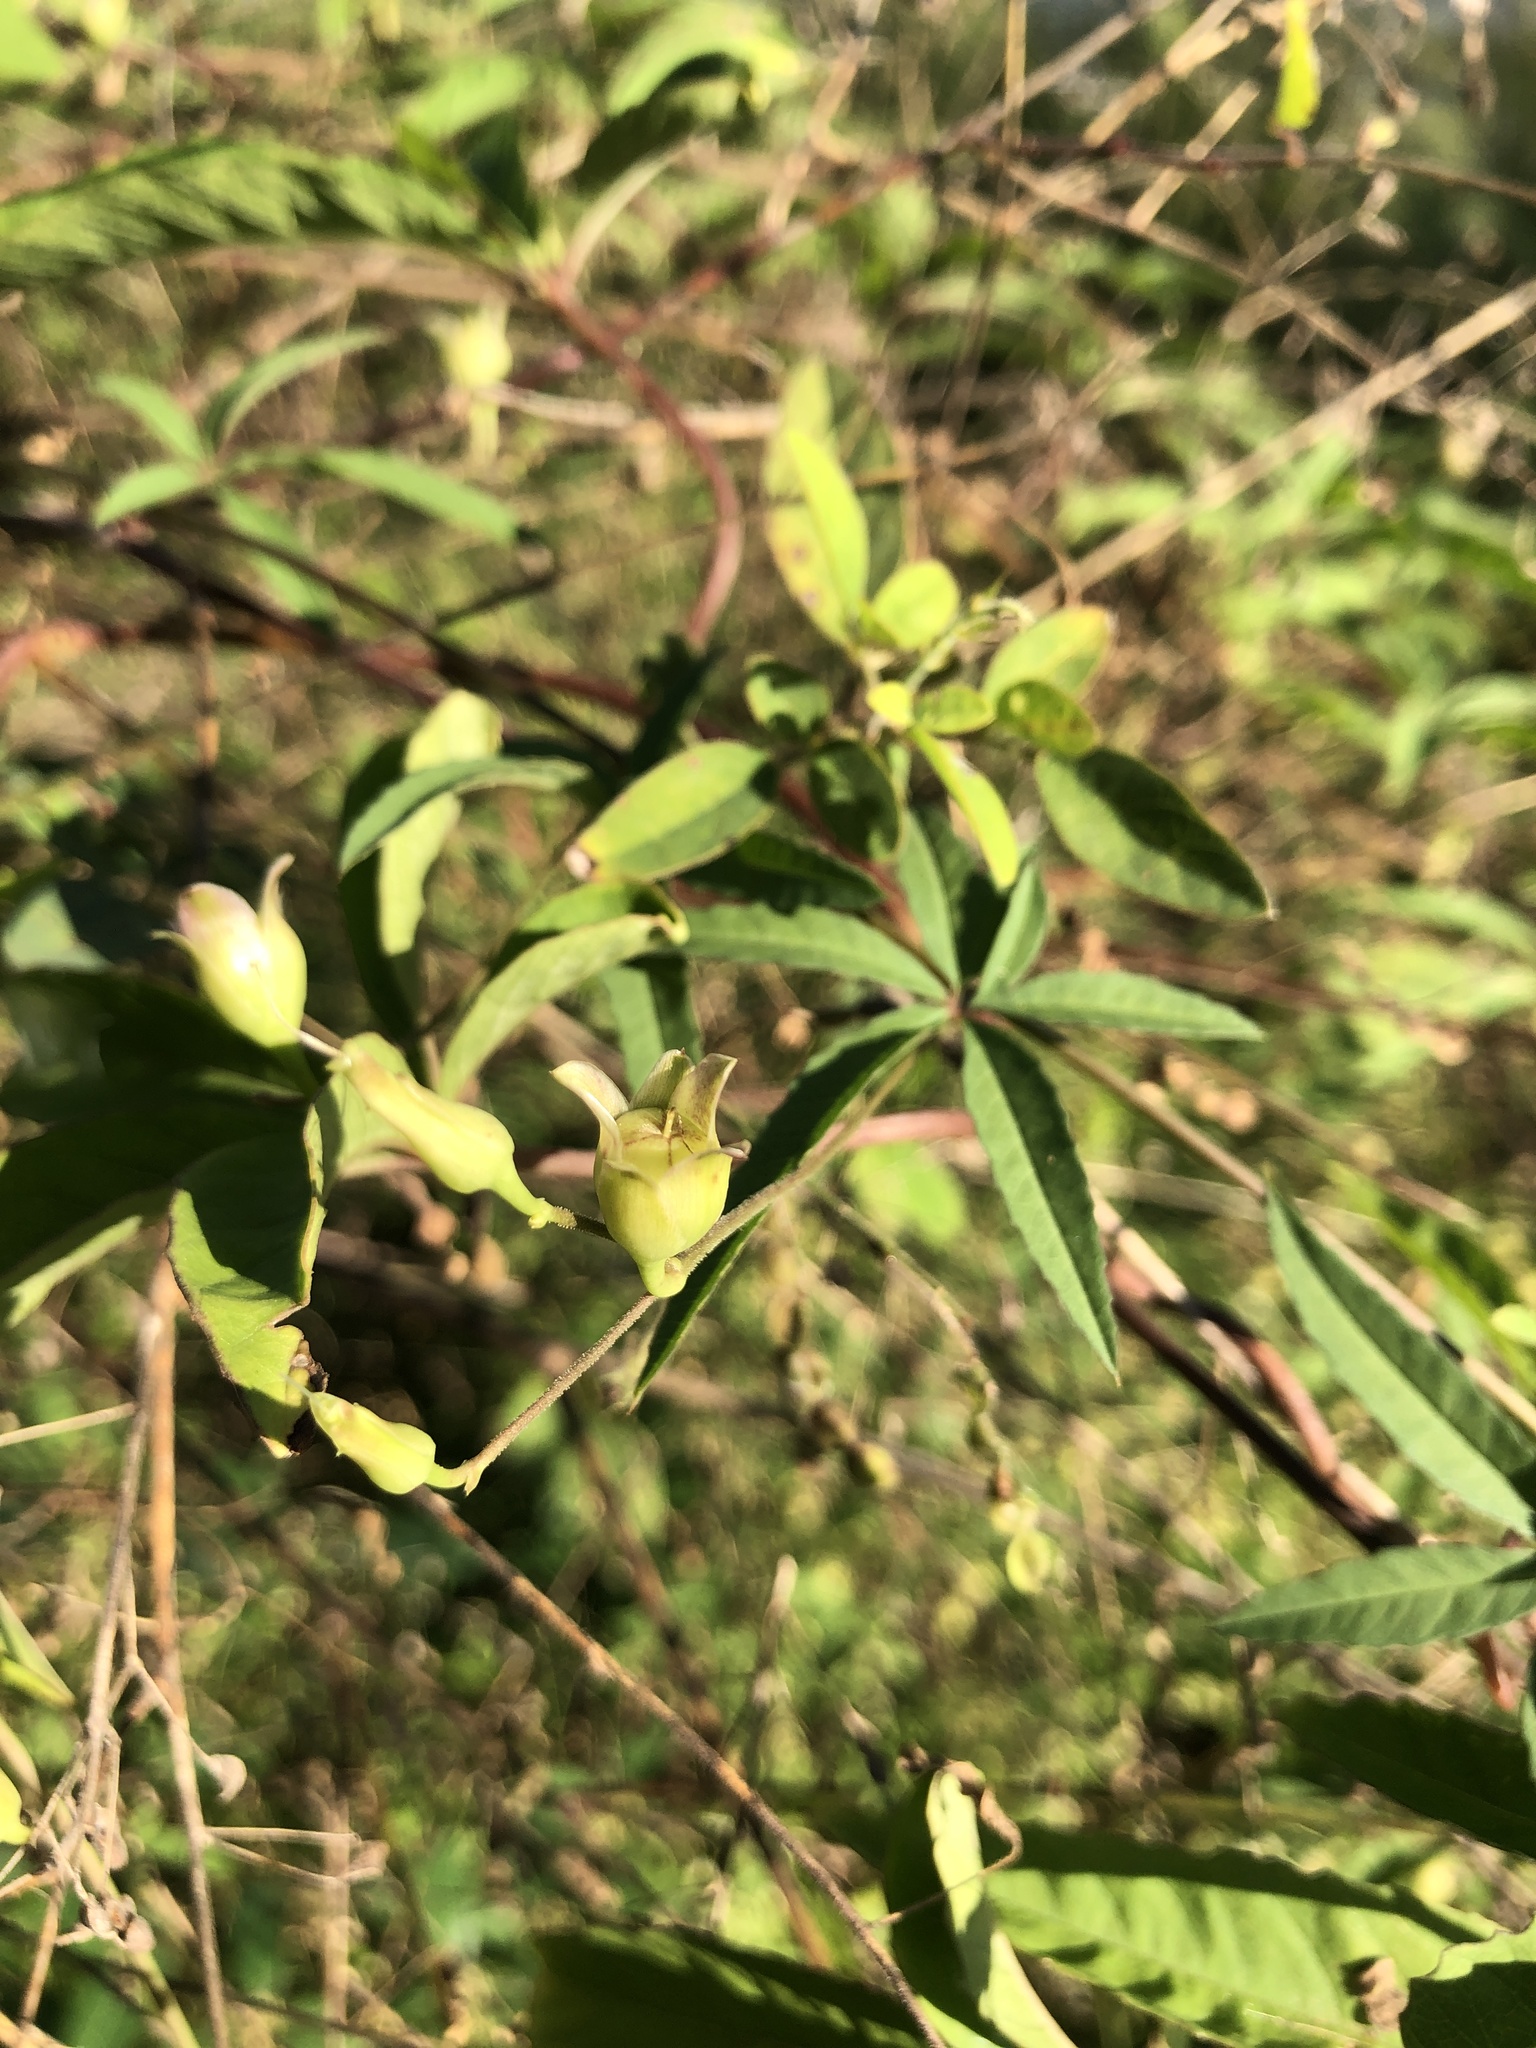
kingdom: Plantae
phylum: Tracheophyta
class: Magnoliopsida
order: Solanales
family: Convolvulaceae
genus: Distimake
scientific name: Distimake quinquefolius
